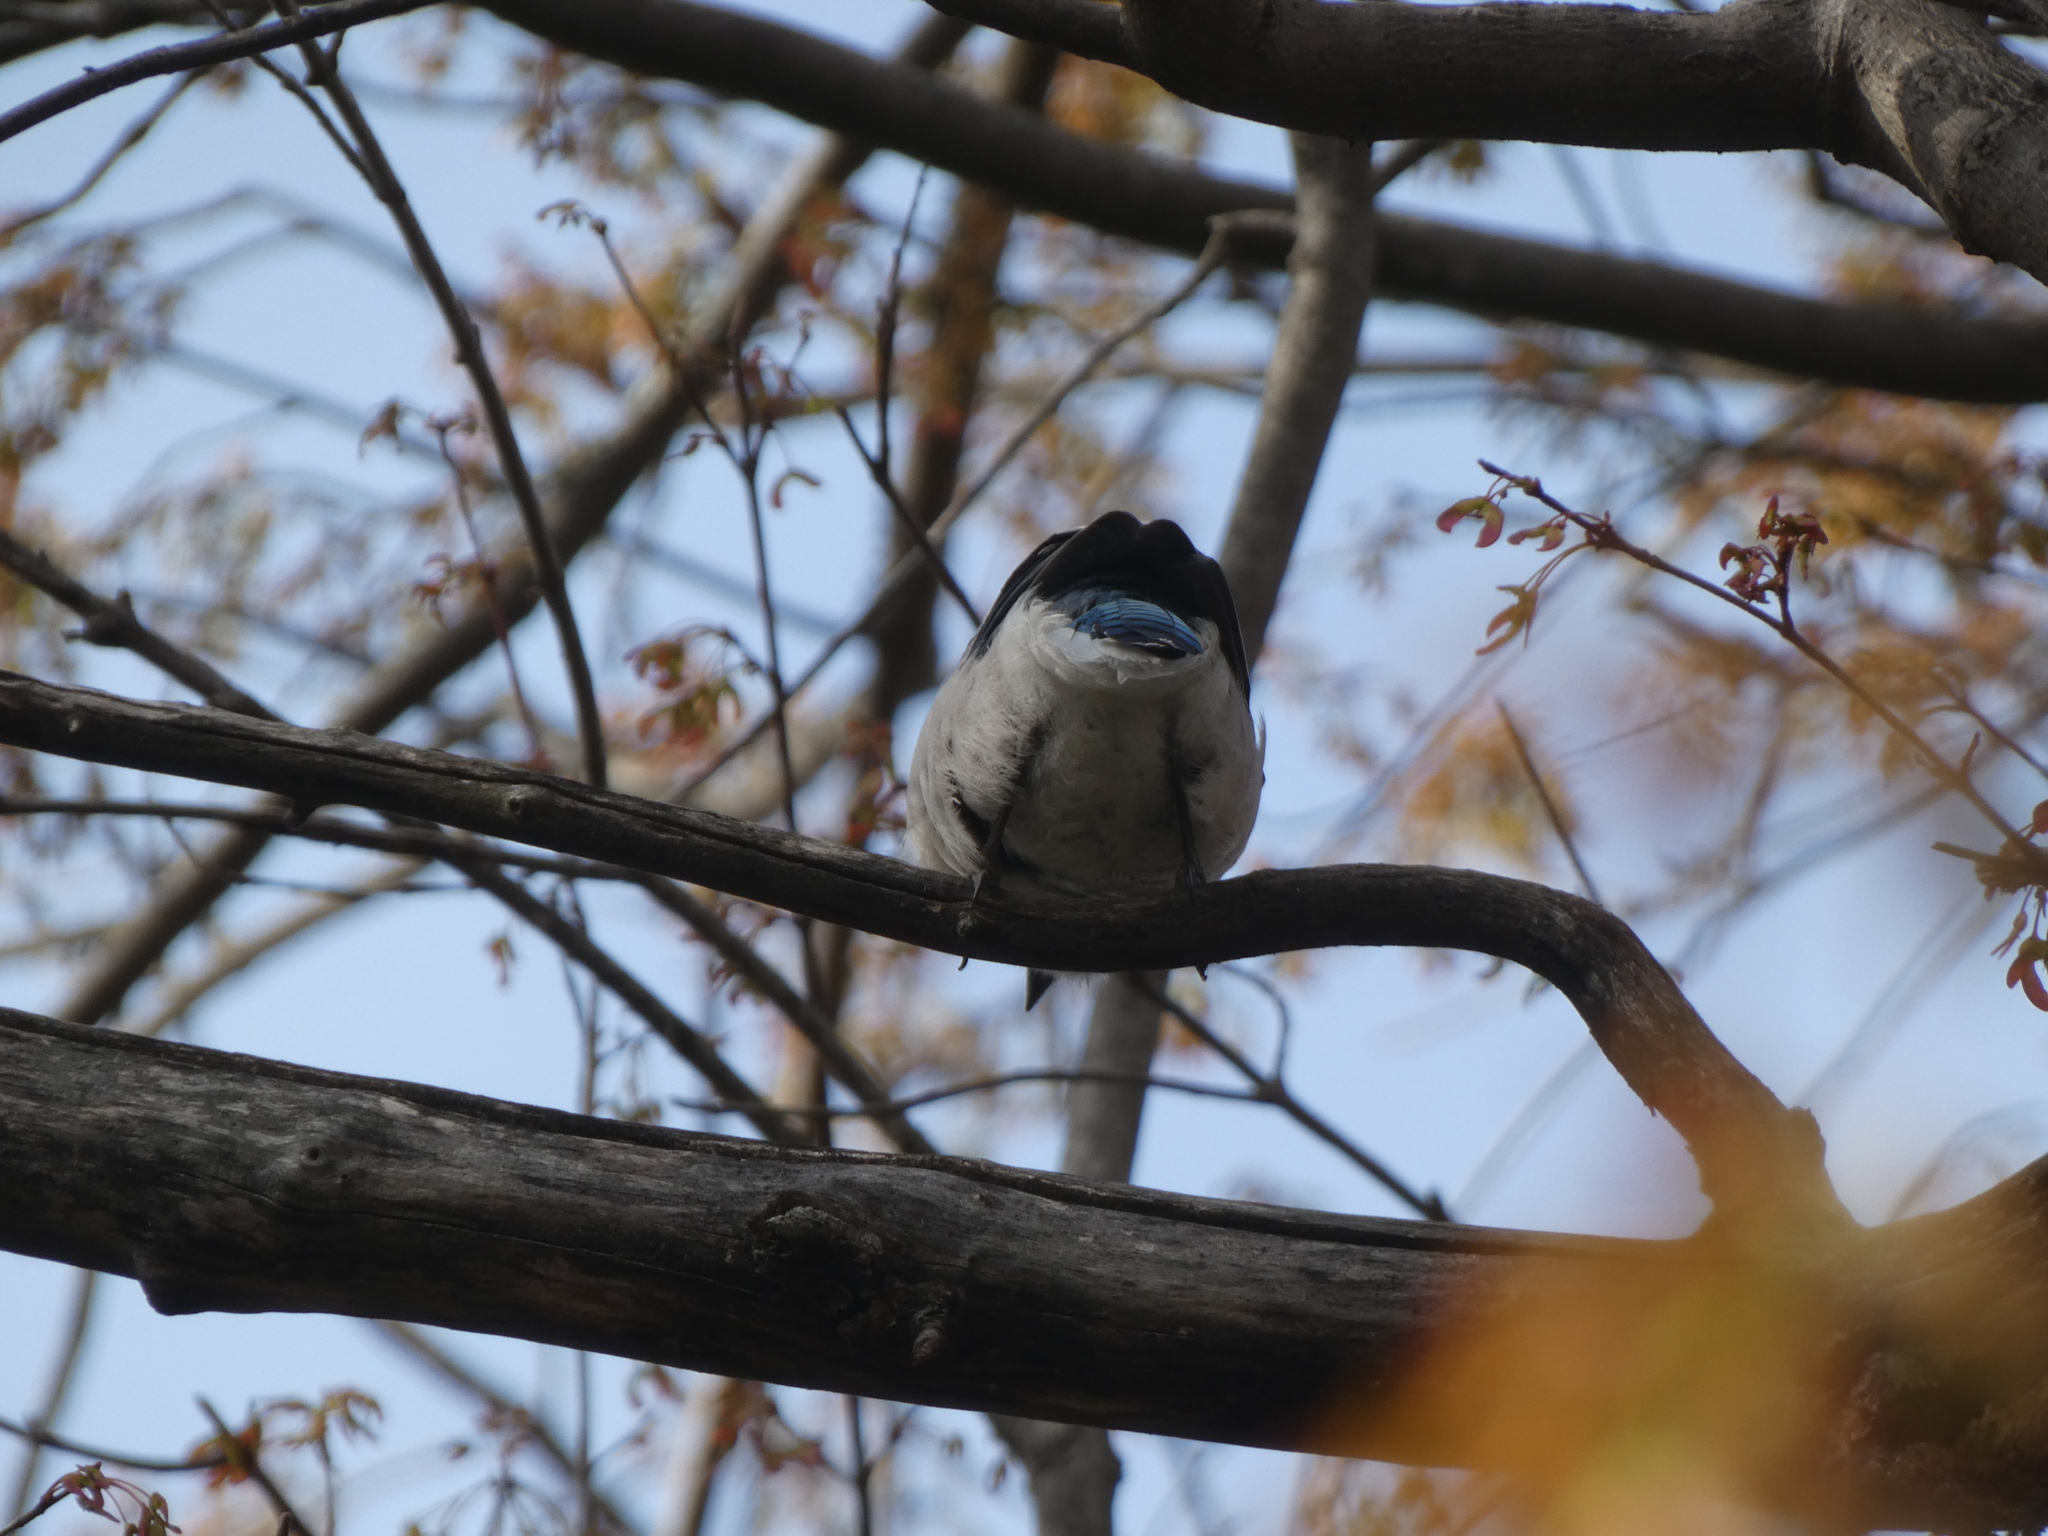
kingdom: Animalia
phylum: Chordata
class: Aves
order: Passeriformes
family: Corvidae
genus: Cyanocitta
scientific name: Cyanocitta cristata
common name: Blue jay
